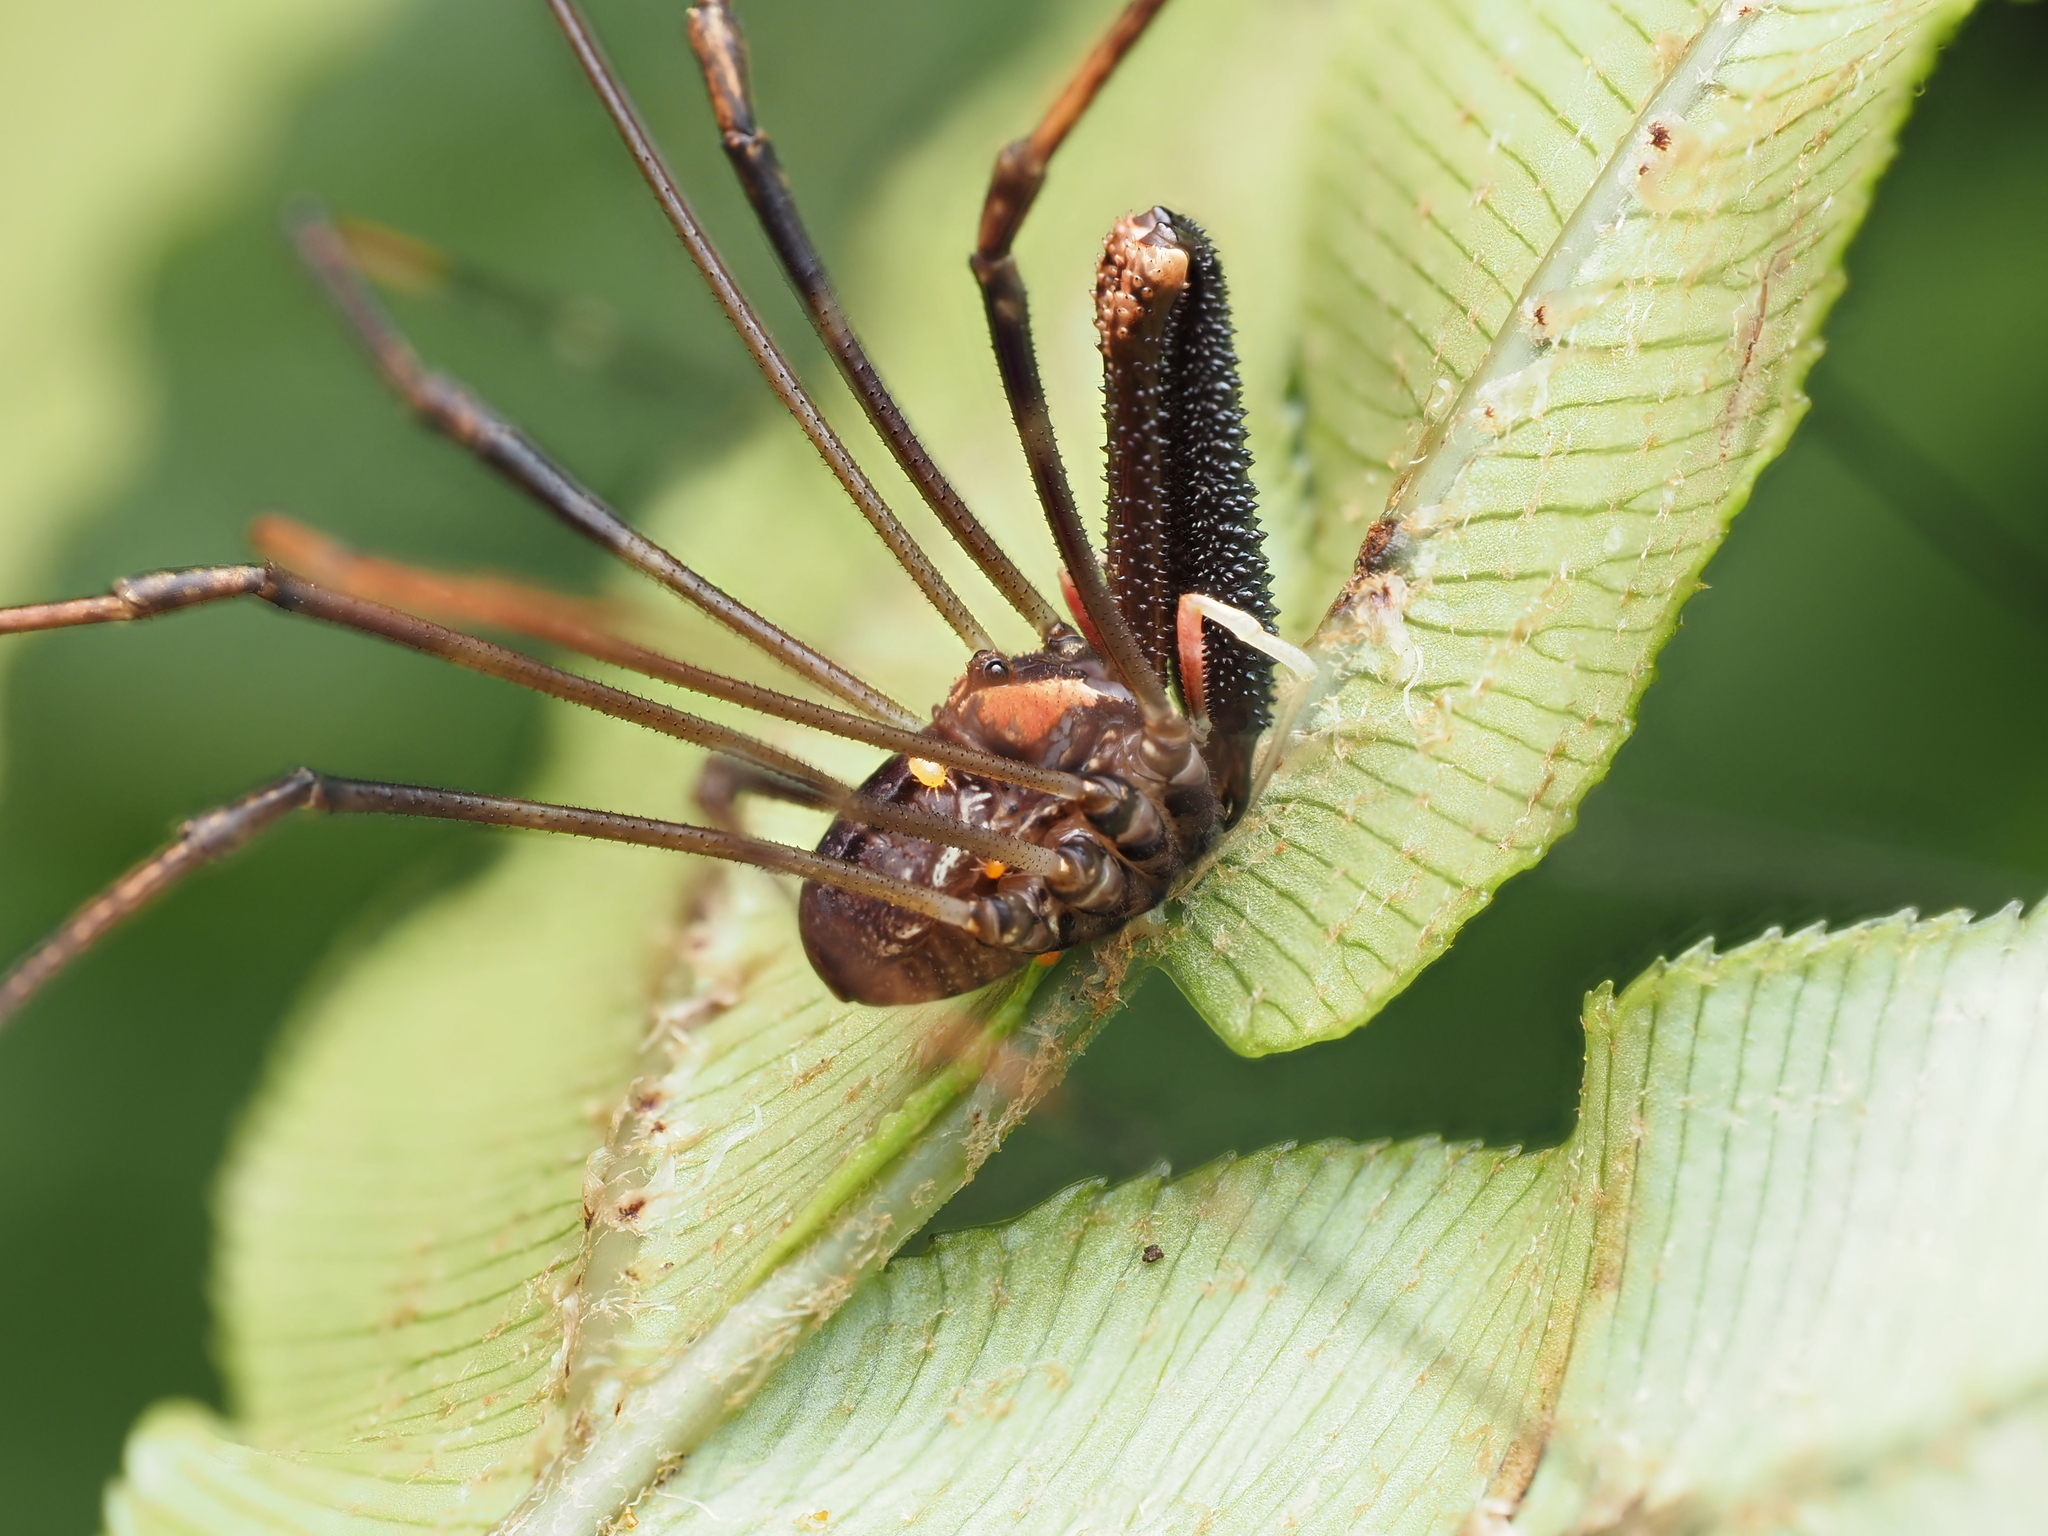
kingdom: Animalia
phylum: Arthropoda
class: Arachnida
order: Opiliones
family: Neopilionidae
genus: Forsteropsalis
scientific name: Forsteropsalis inconstans
